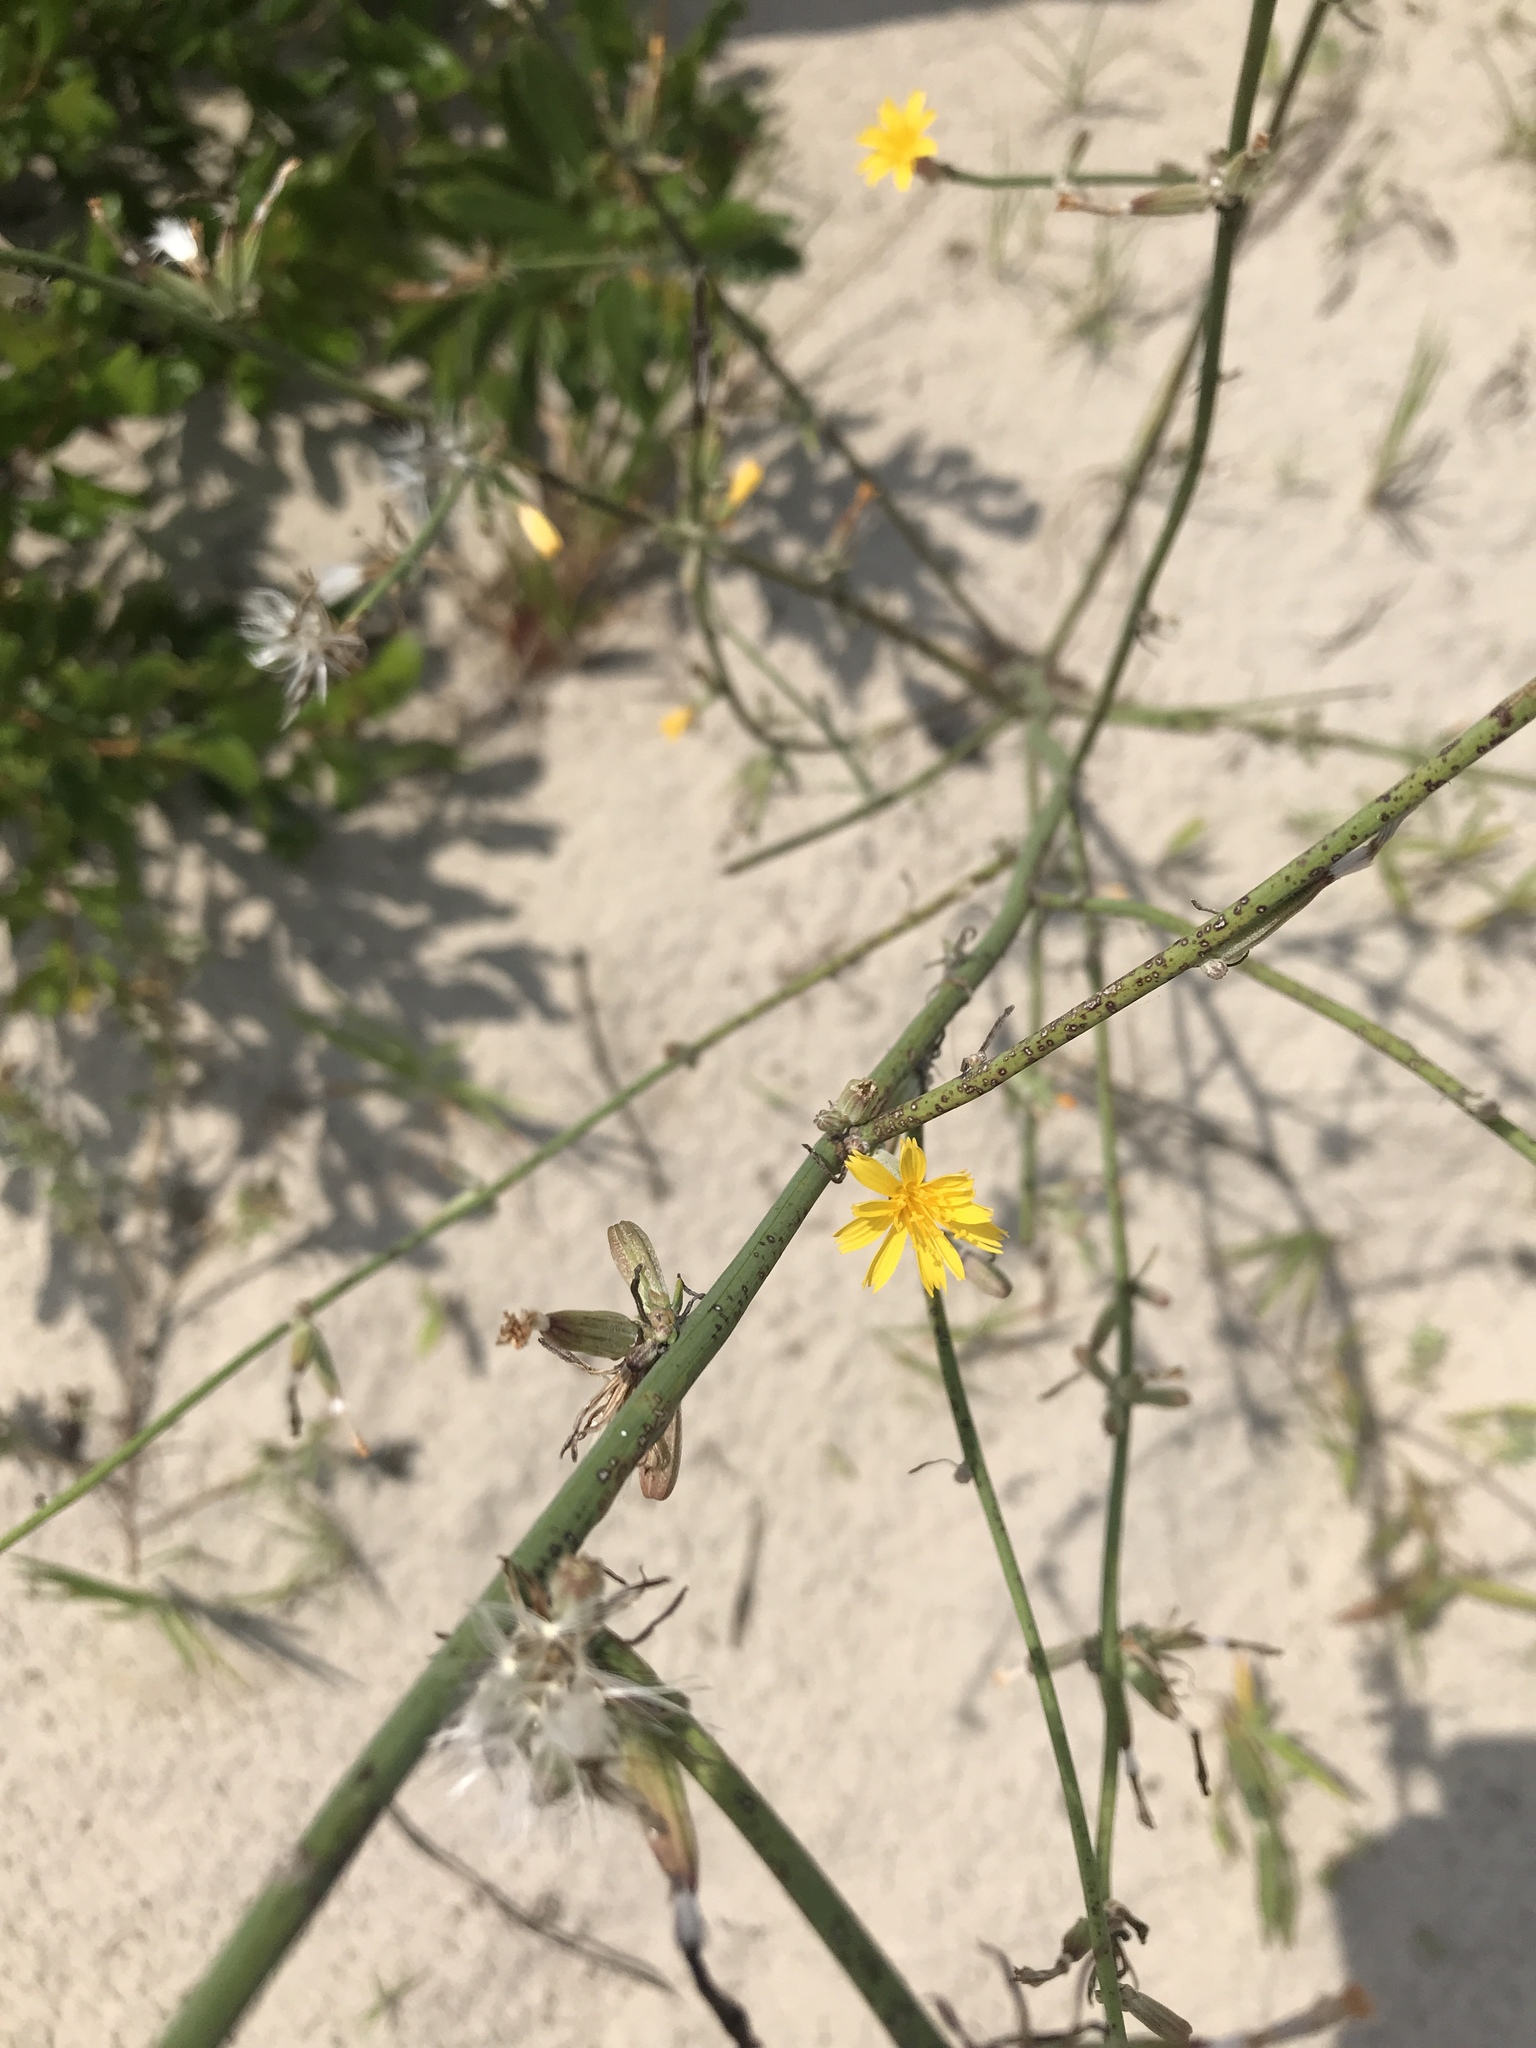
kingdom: Plantae
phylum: Tracheophyta
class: Magnoliopsida
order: Asterales
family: Asteraceae
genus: Chondrilla
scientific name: Chondrilla juncea
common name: Skeleton weed
